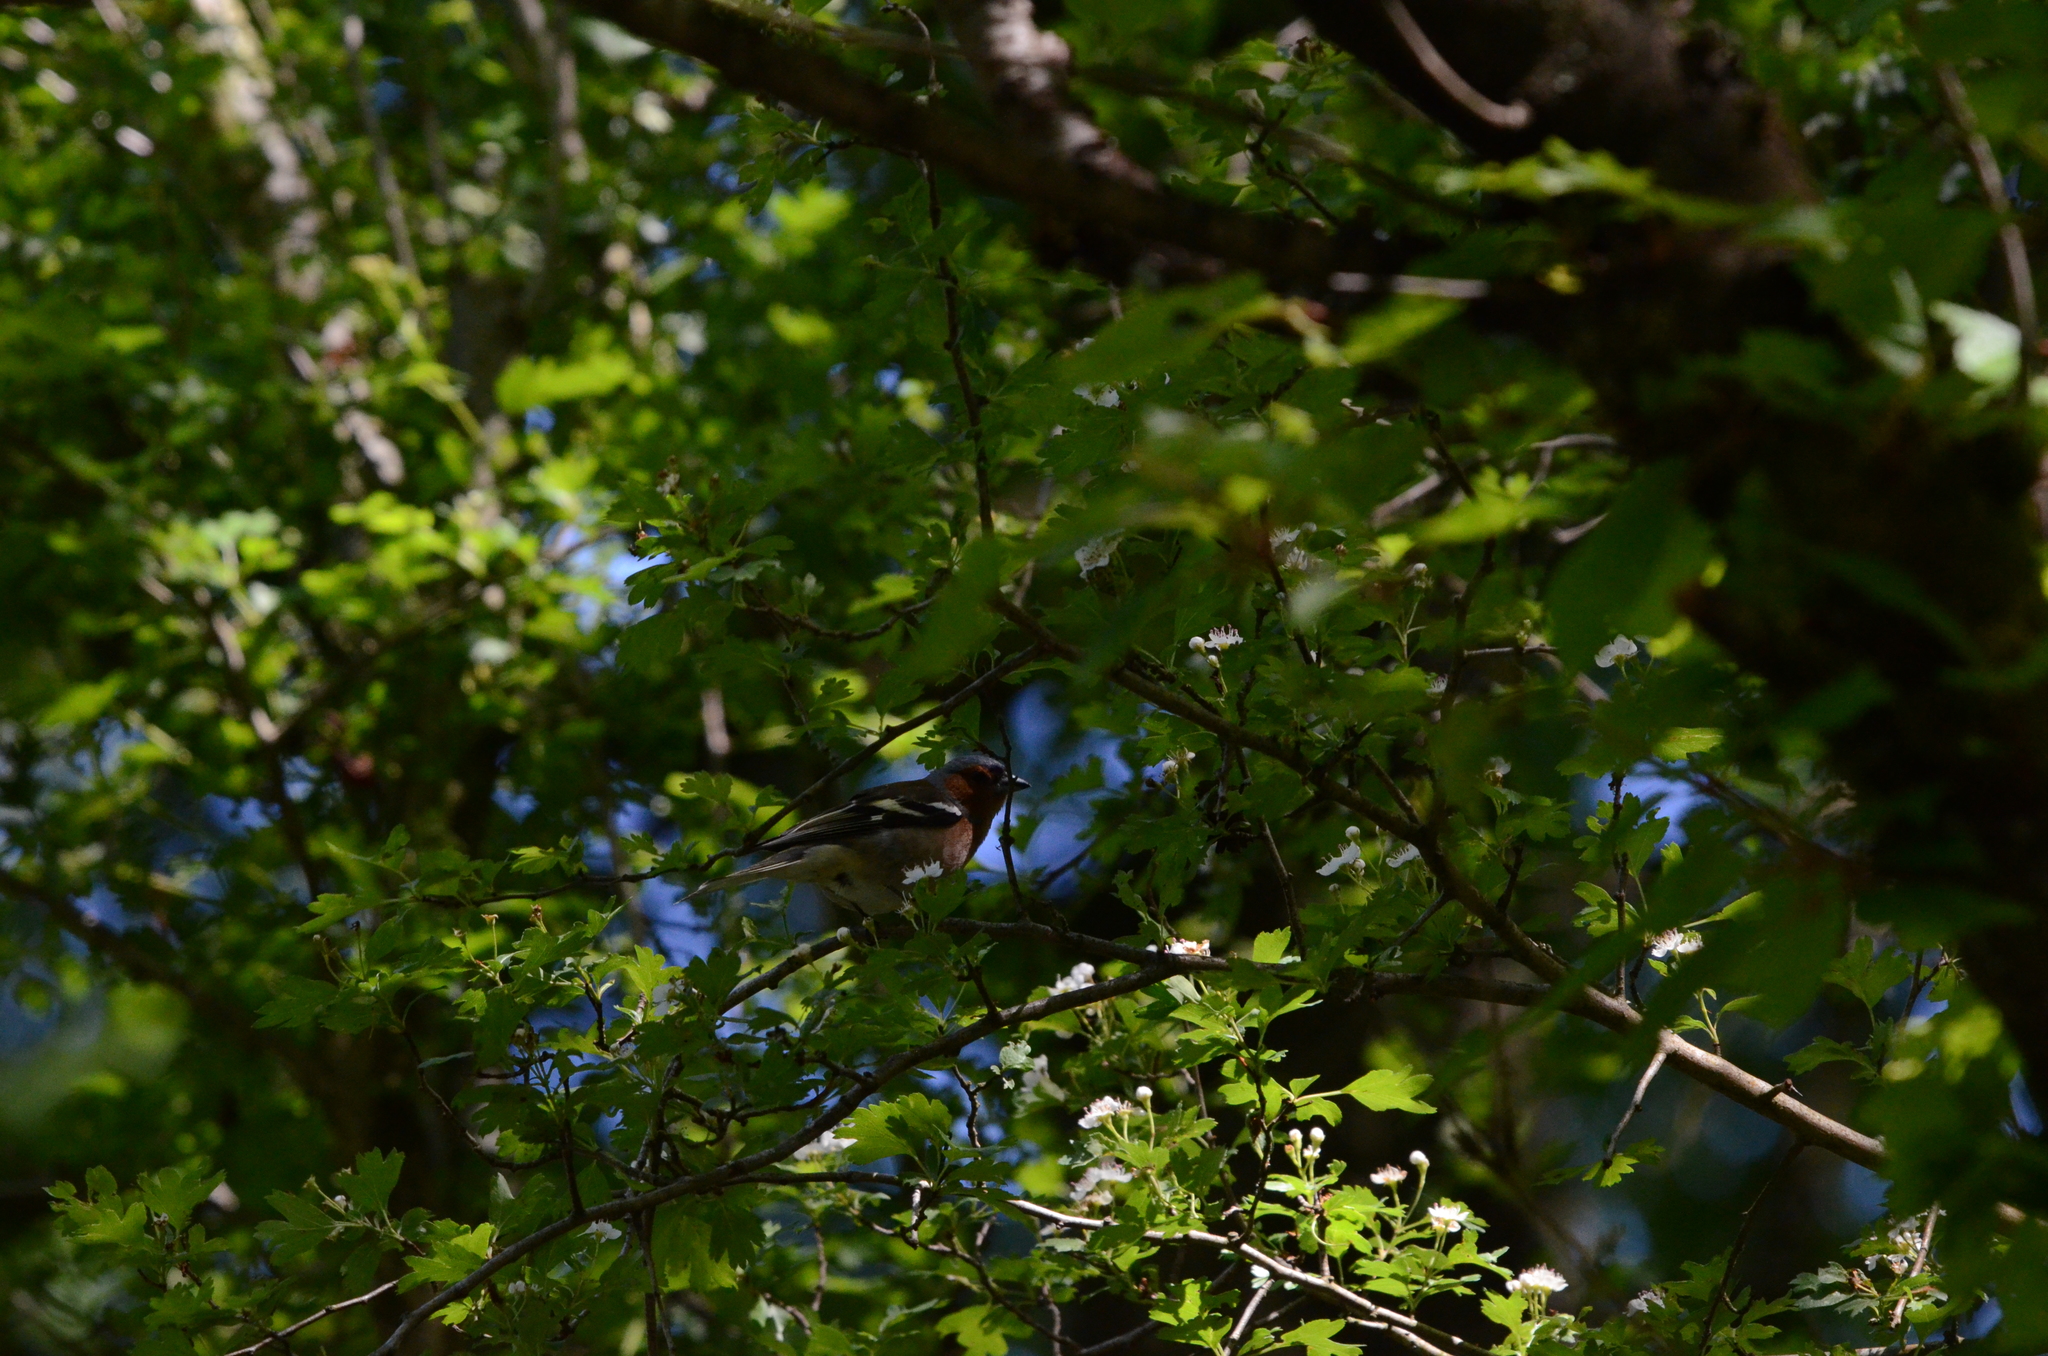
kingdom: Animalia
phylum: Chordata
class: Aves
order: Passeriformes
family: Fringillidae
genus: Fringilla
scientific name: Fringilla coelebs
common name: Common chaffinch
